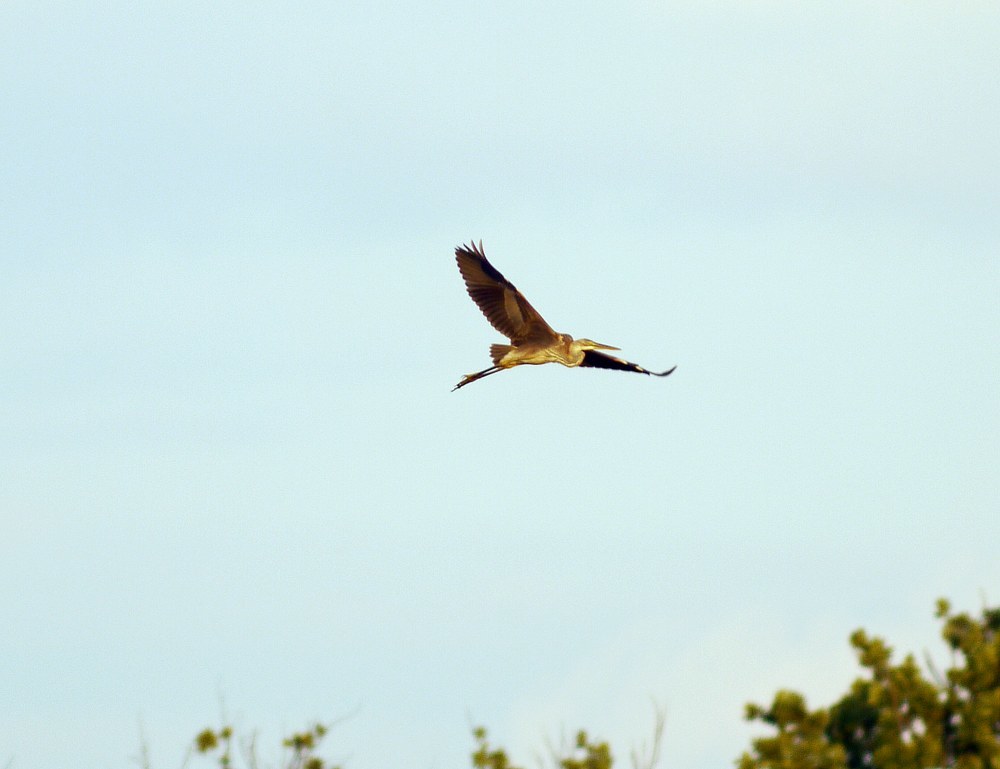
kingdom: Animalia
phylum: Chordata
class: Aves
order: Pelecaniformes
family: Ardeidae
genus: Ardea
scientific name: Ardea purpurea
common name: Purple heron
